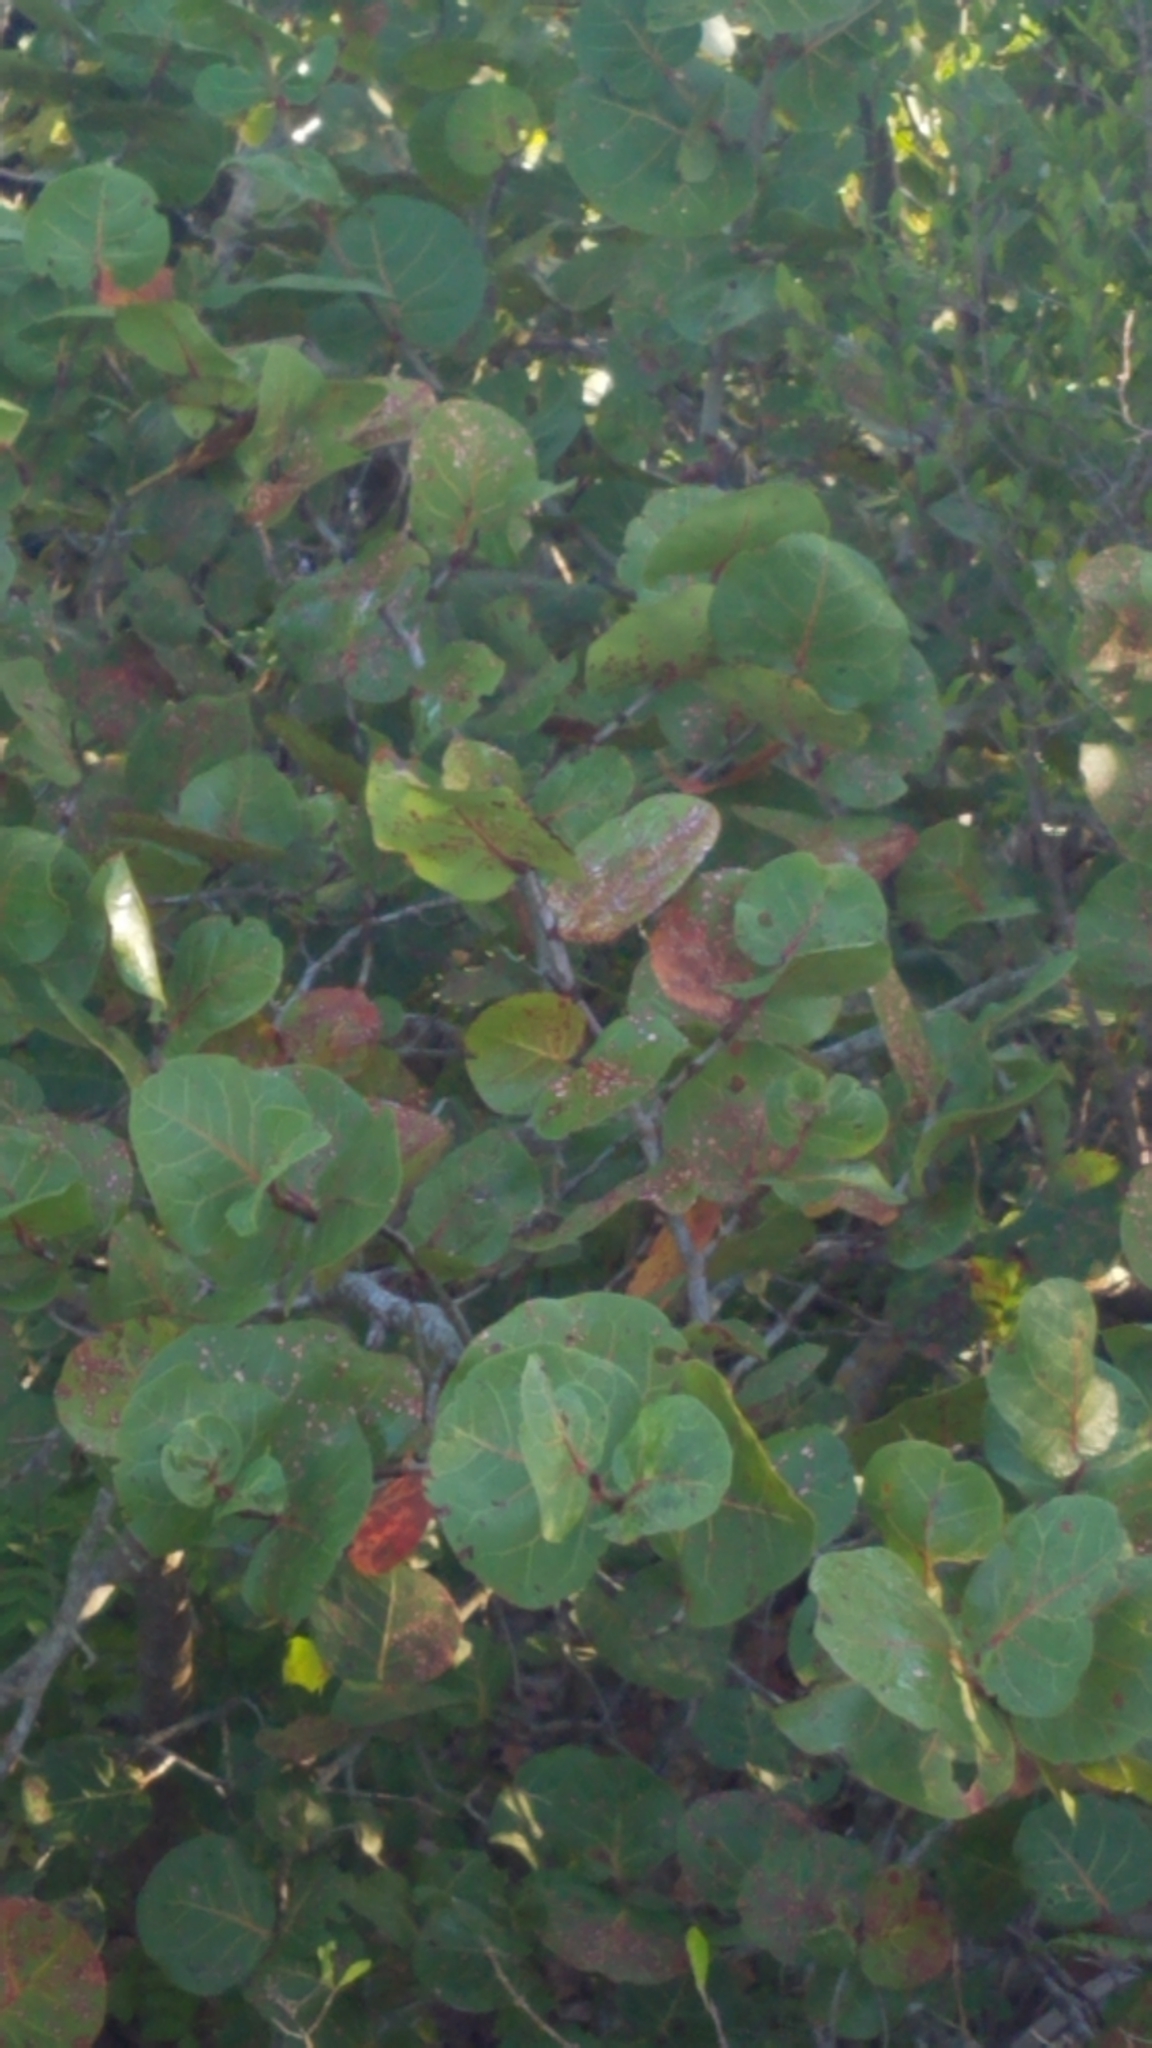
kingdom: Plantae
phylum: Tracheophyta
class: Magnoliopsida
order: Caryophyllales
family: Polygonaceae
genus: Coccoloba
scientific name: Coccoloba uvifera
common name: Seagrape
